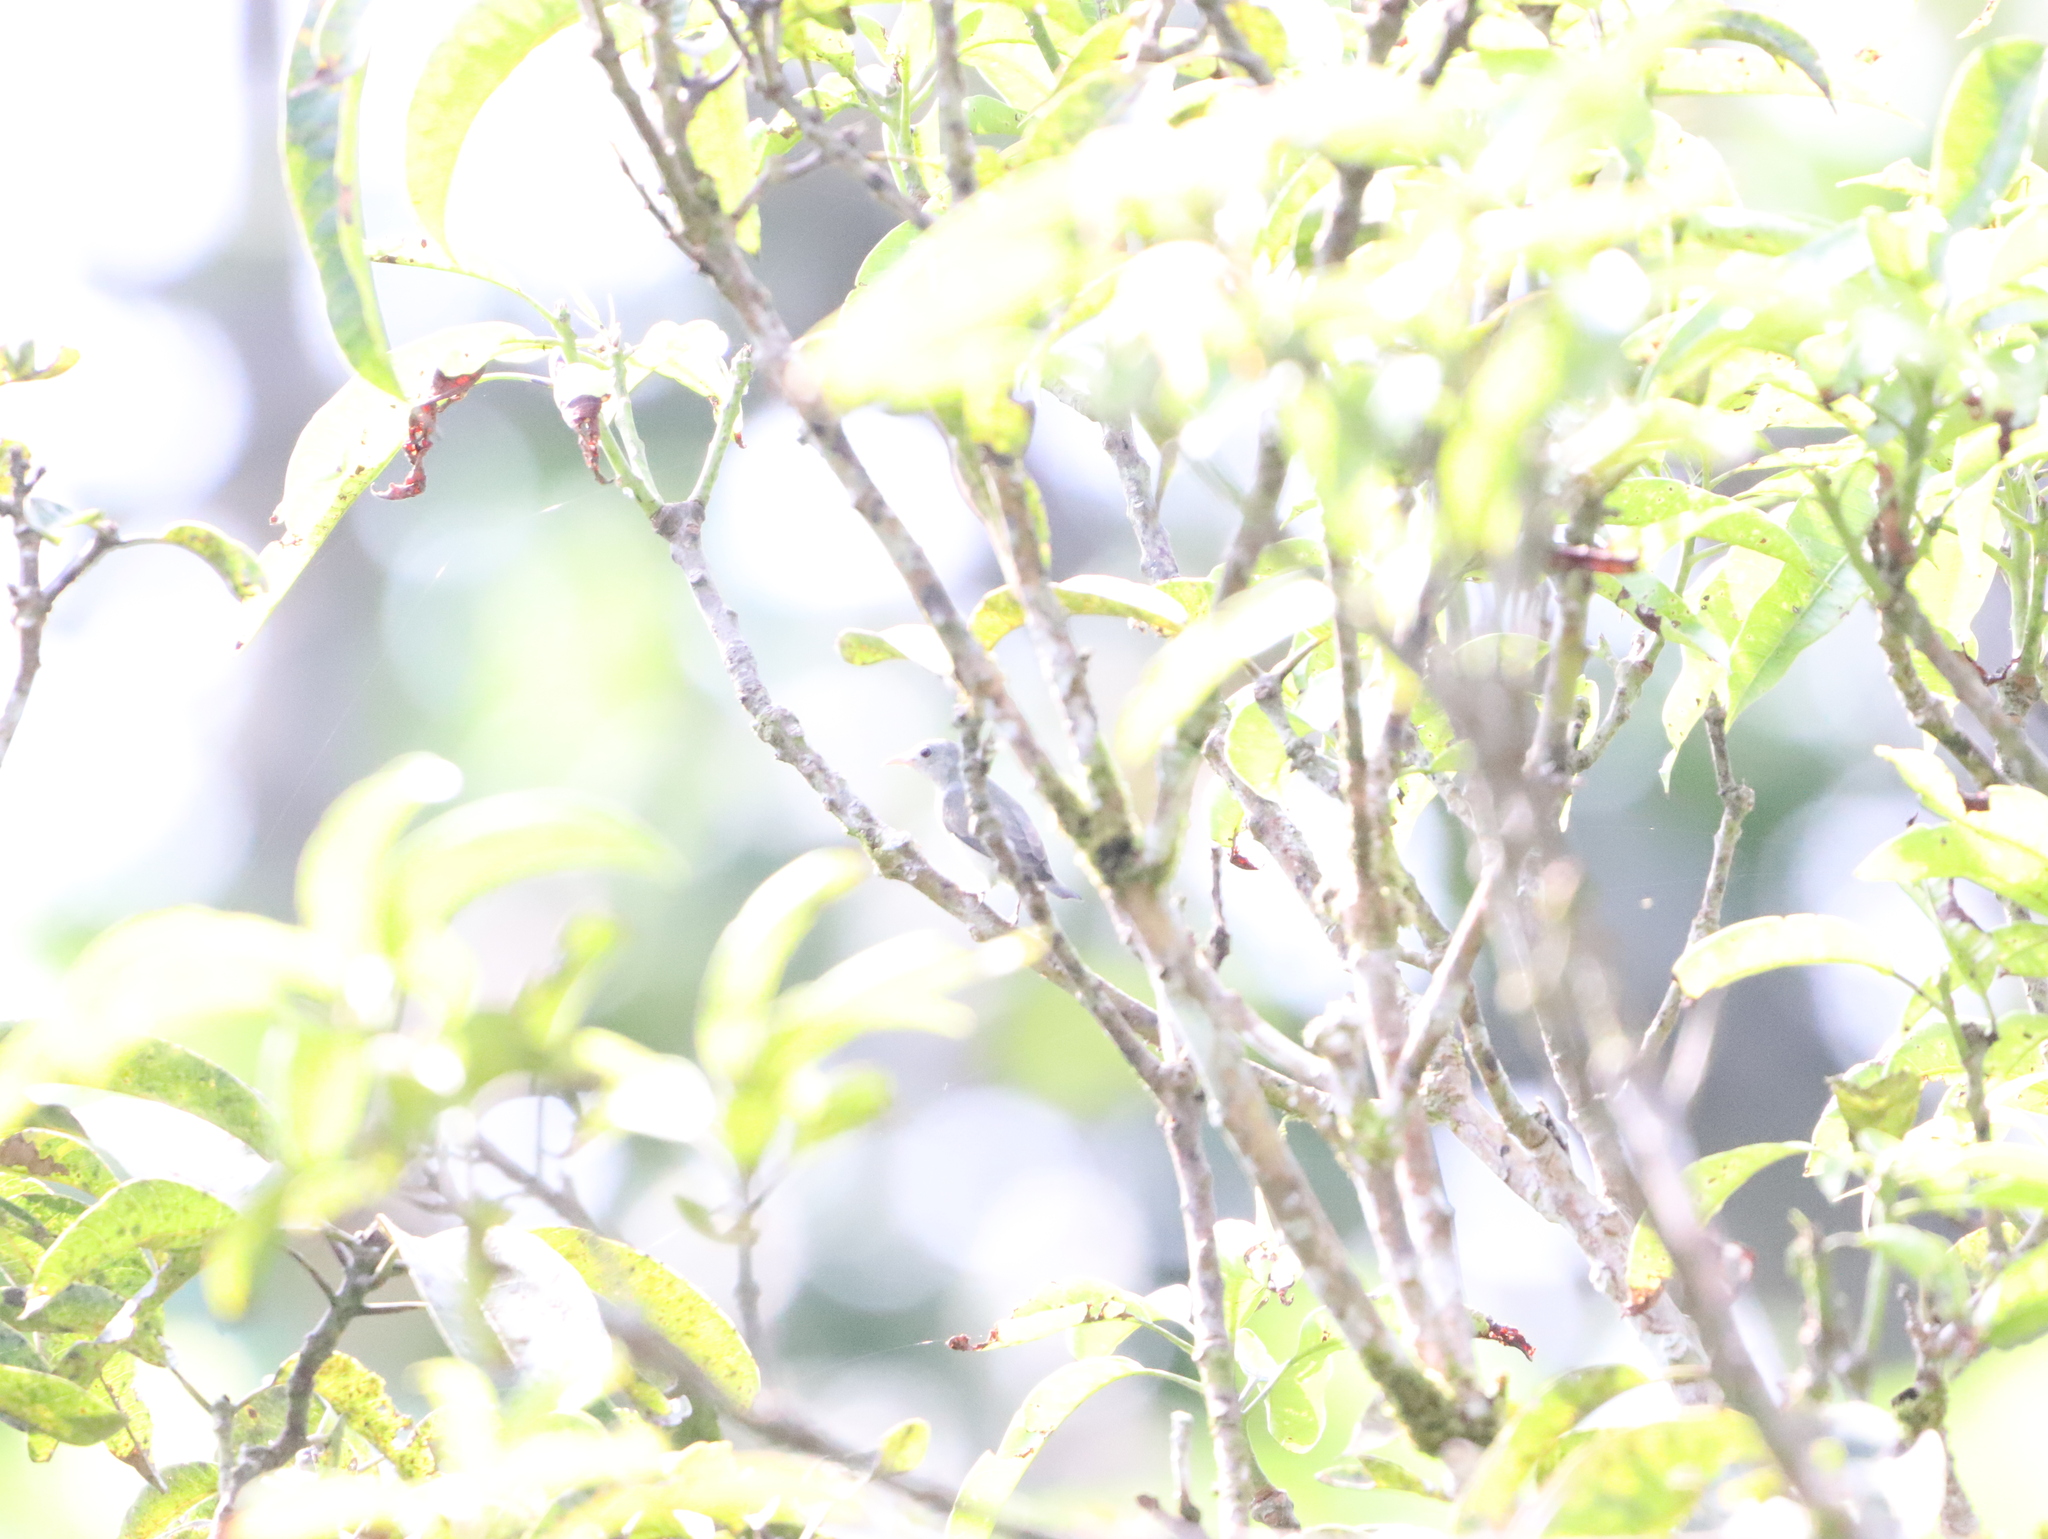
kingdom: Animalia
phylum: Chordata
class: Aves
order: Passeriformes
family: Dicaeidae
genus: Dicaeum
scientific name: Dicaeum erythrorhynchos
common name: Pale-billed flowerpecker
